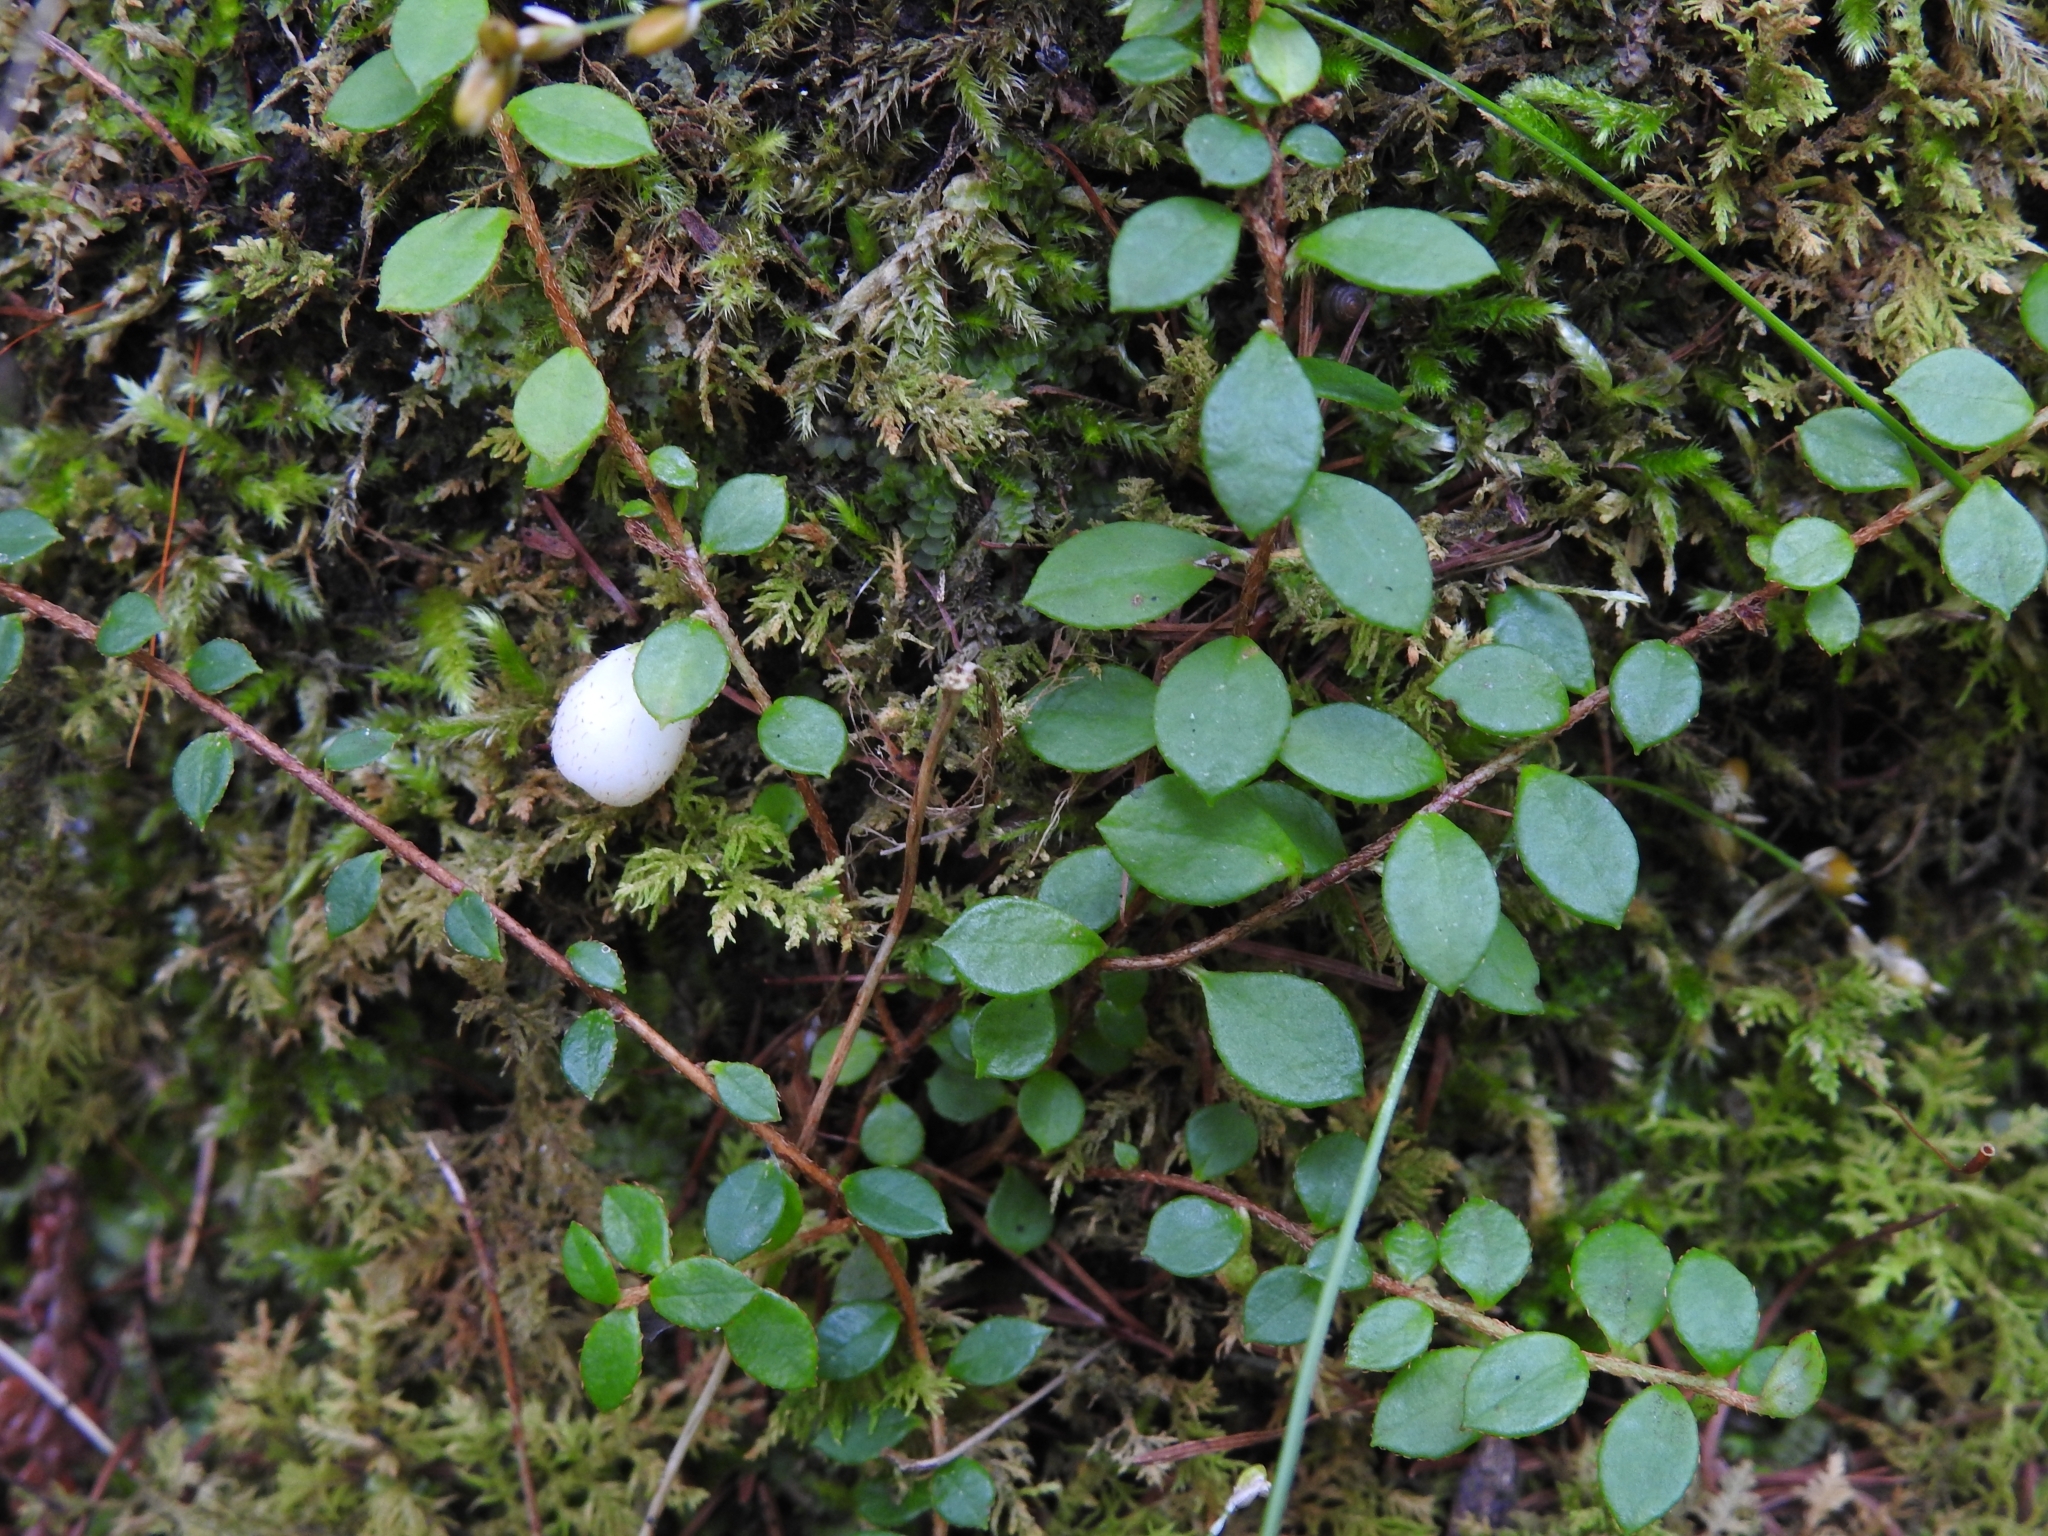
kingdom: Plantae
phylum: Tracheophyta
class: Magnoliopsida
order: Ericales
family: Ericaceae
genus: Gaultheria
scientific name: Gaultheria hispidula
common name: Cancer wintergreen
